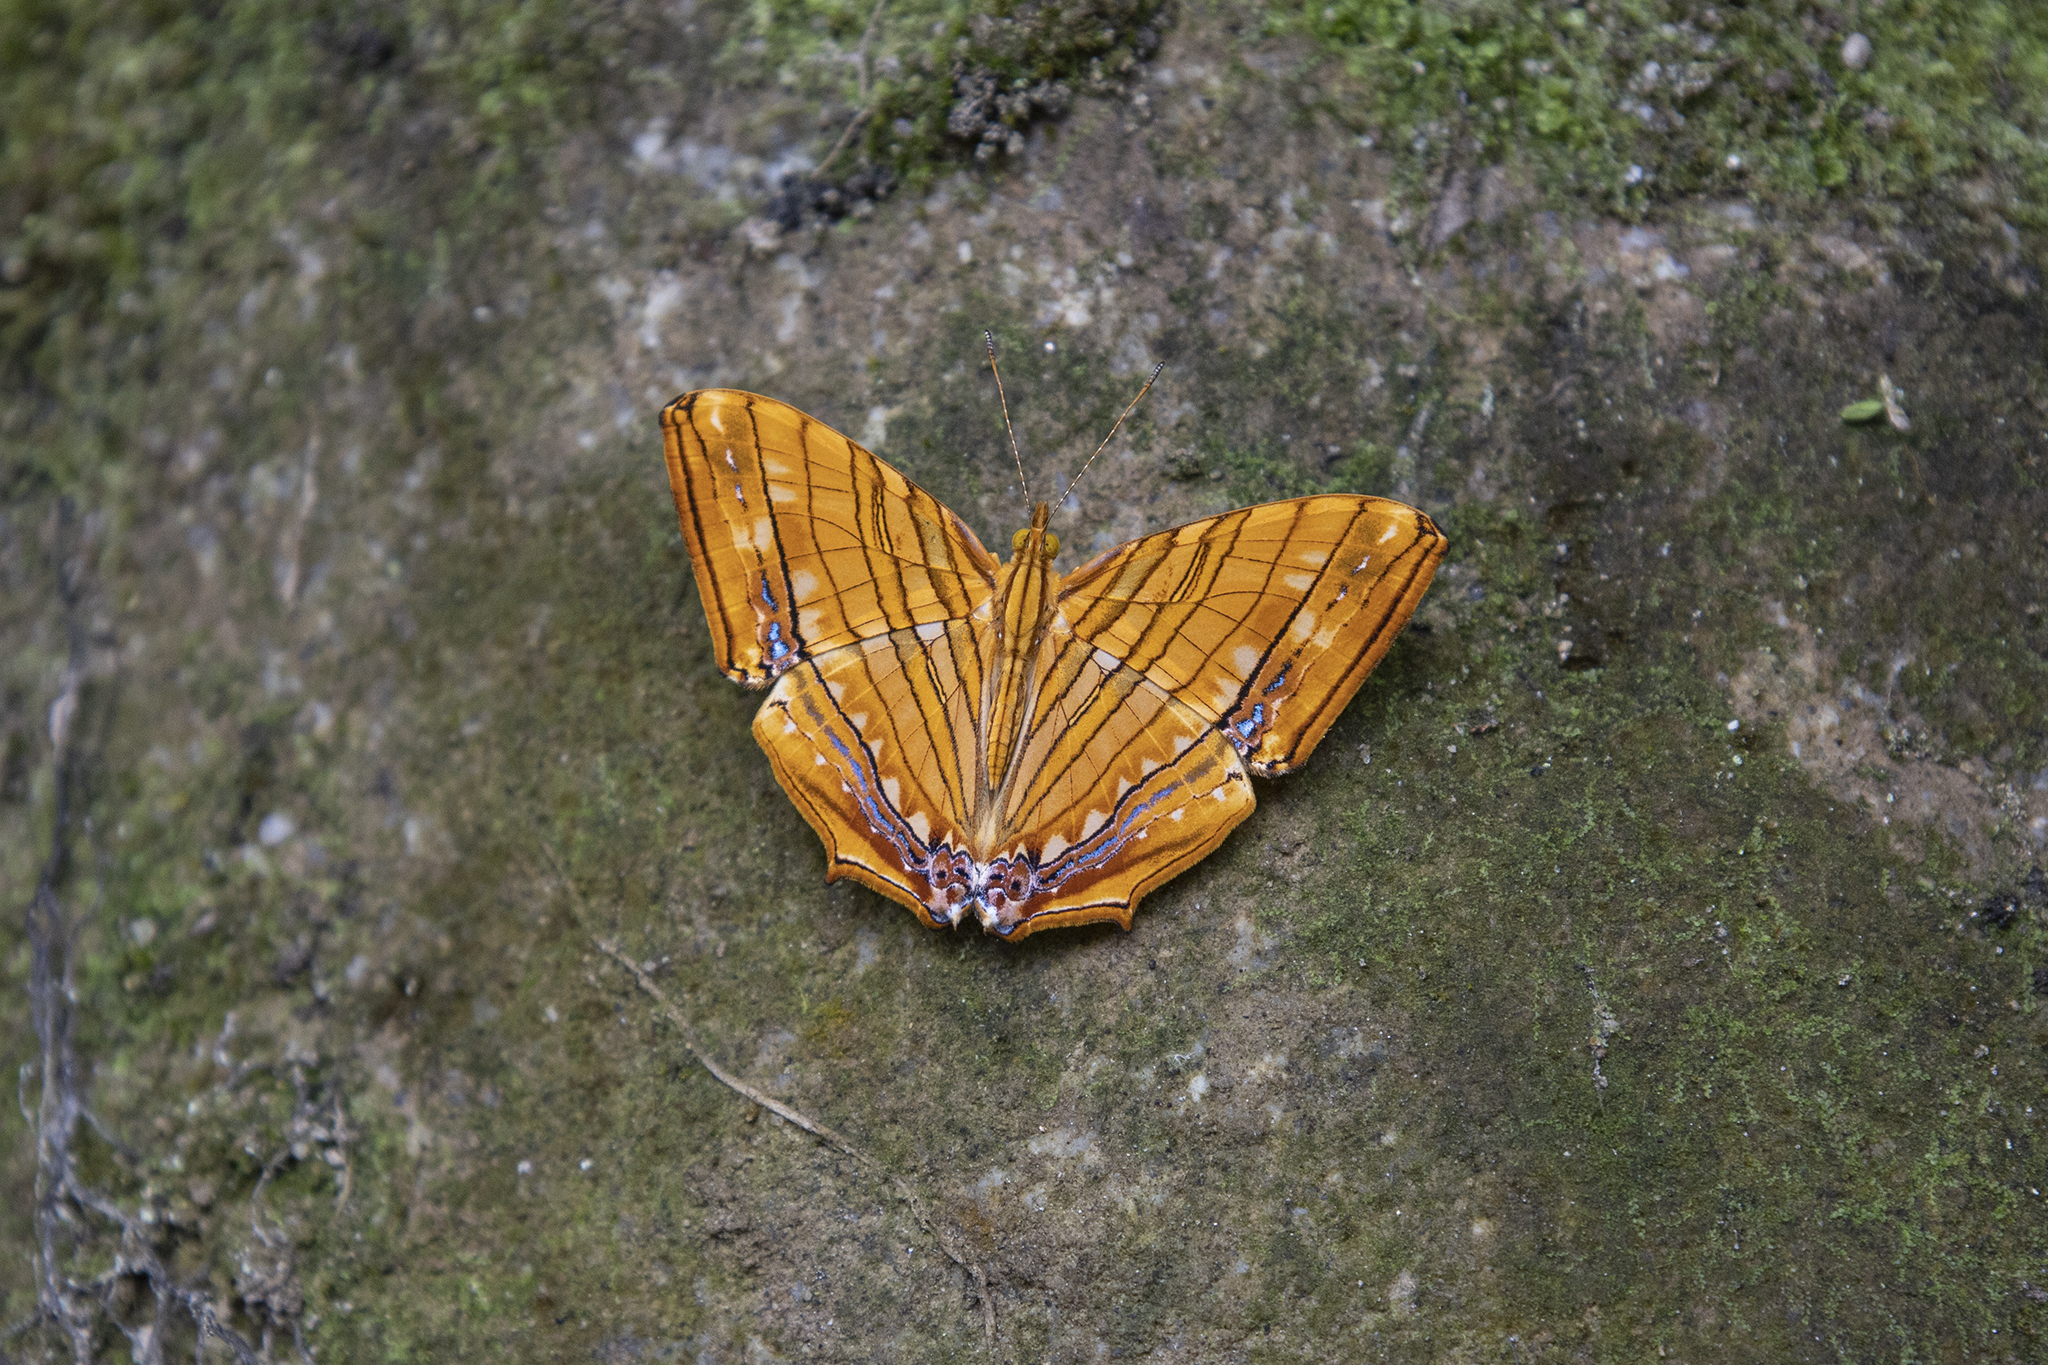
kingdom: Animalia
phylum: Arthropoda
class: Insecta
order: Lepidoptera
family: Nymphalidae
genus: Chersonesia
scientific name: Chersonesia risa
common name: Common maplet
